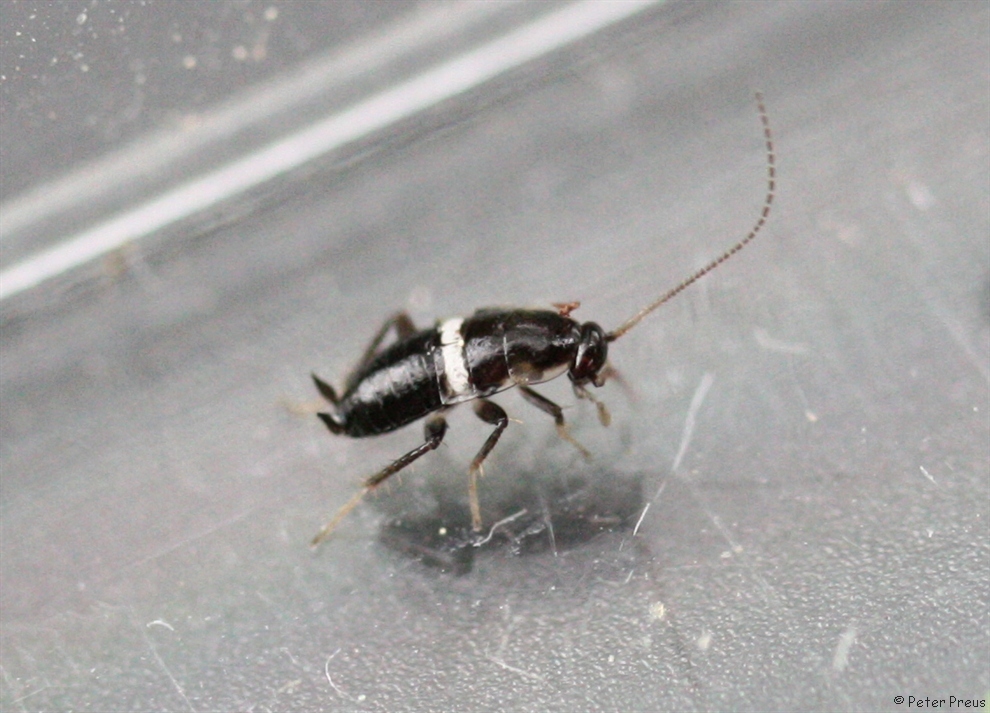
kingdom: Animalia
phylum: Arthropoda
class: Insecta
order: Blattodea
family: Ectobiidae
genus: Planuncus
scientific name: Planuncus tingitanus
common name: Variable cockroach
